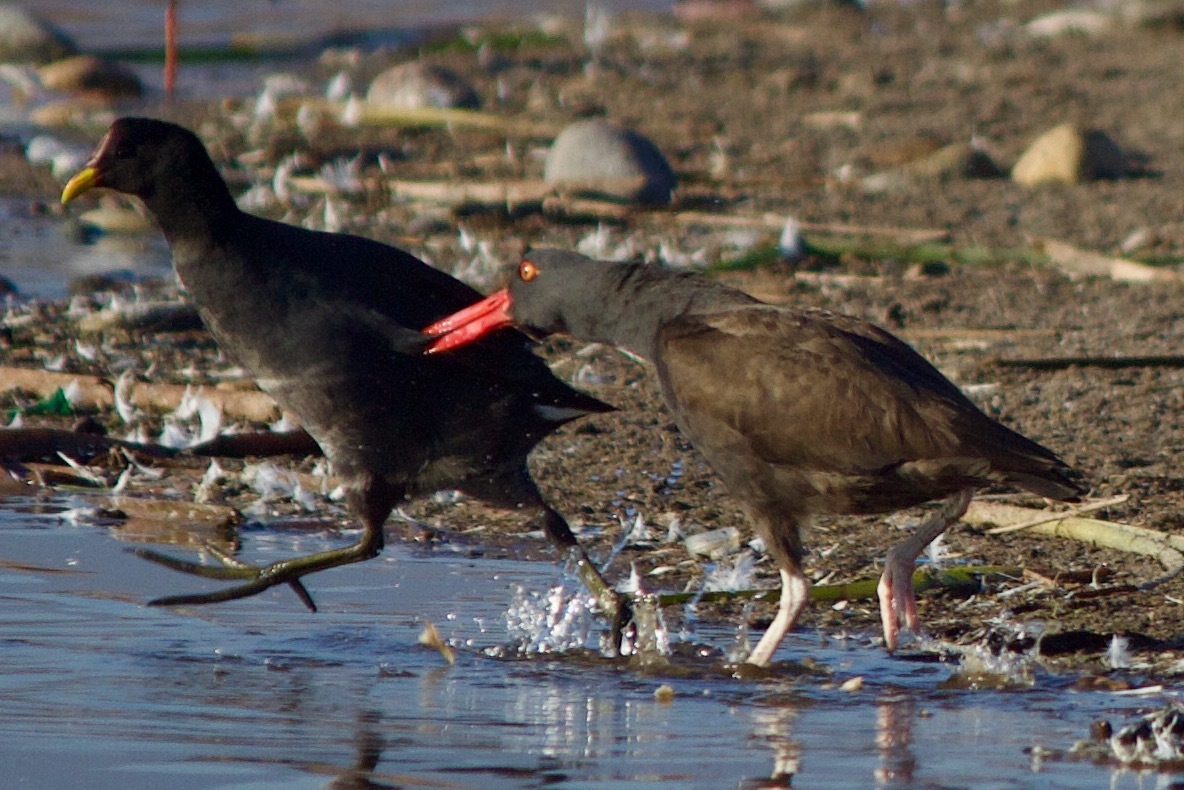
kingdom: Animalia
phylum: Chordata
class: Aves
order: Charadriiformes
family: Haematopodidae
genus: Haematopus
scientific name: Haematopus ater
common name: Blackish oystercatcher
